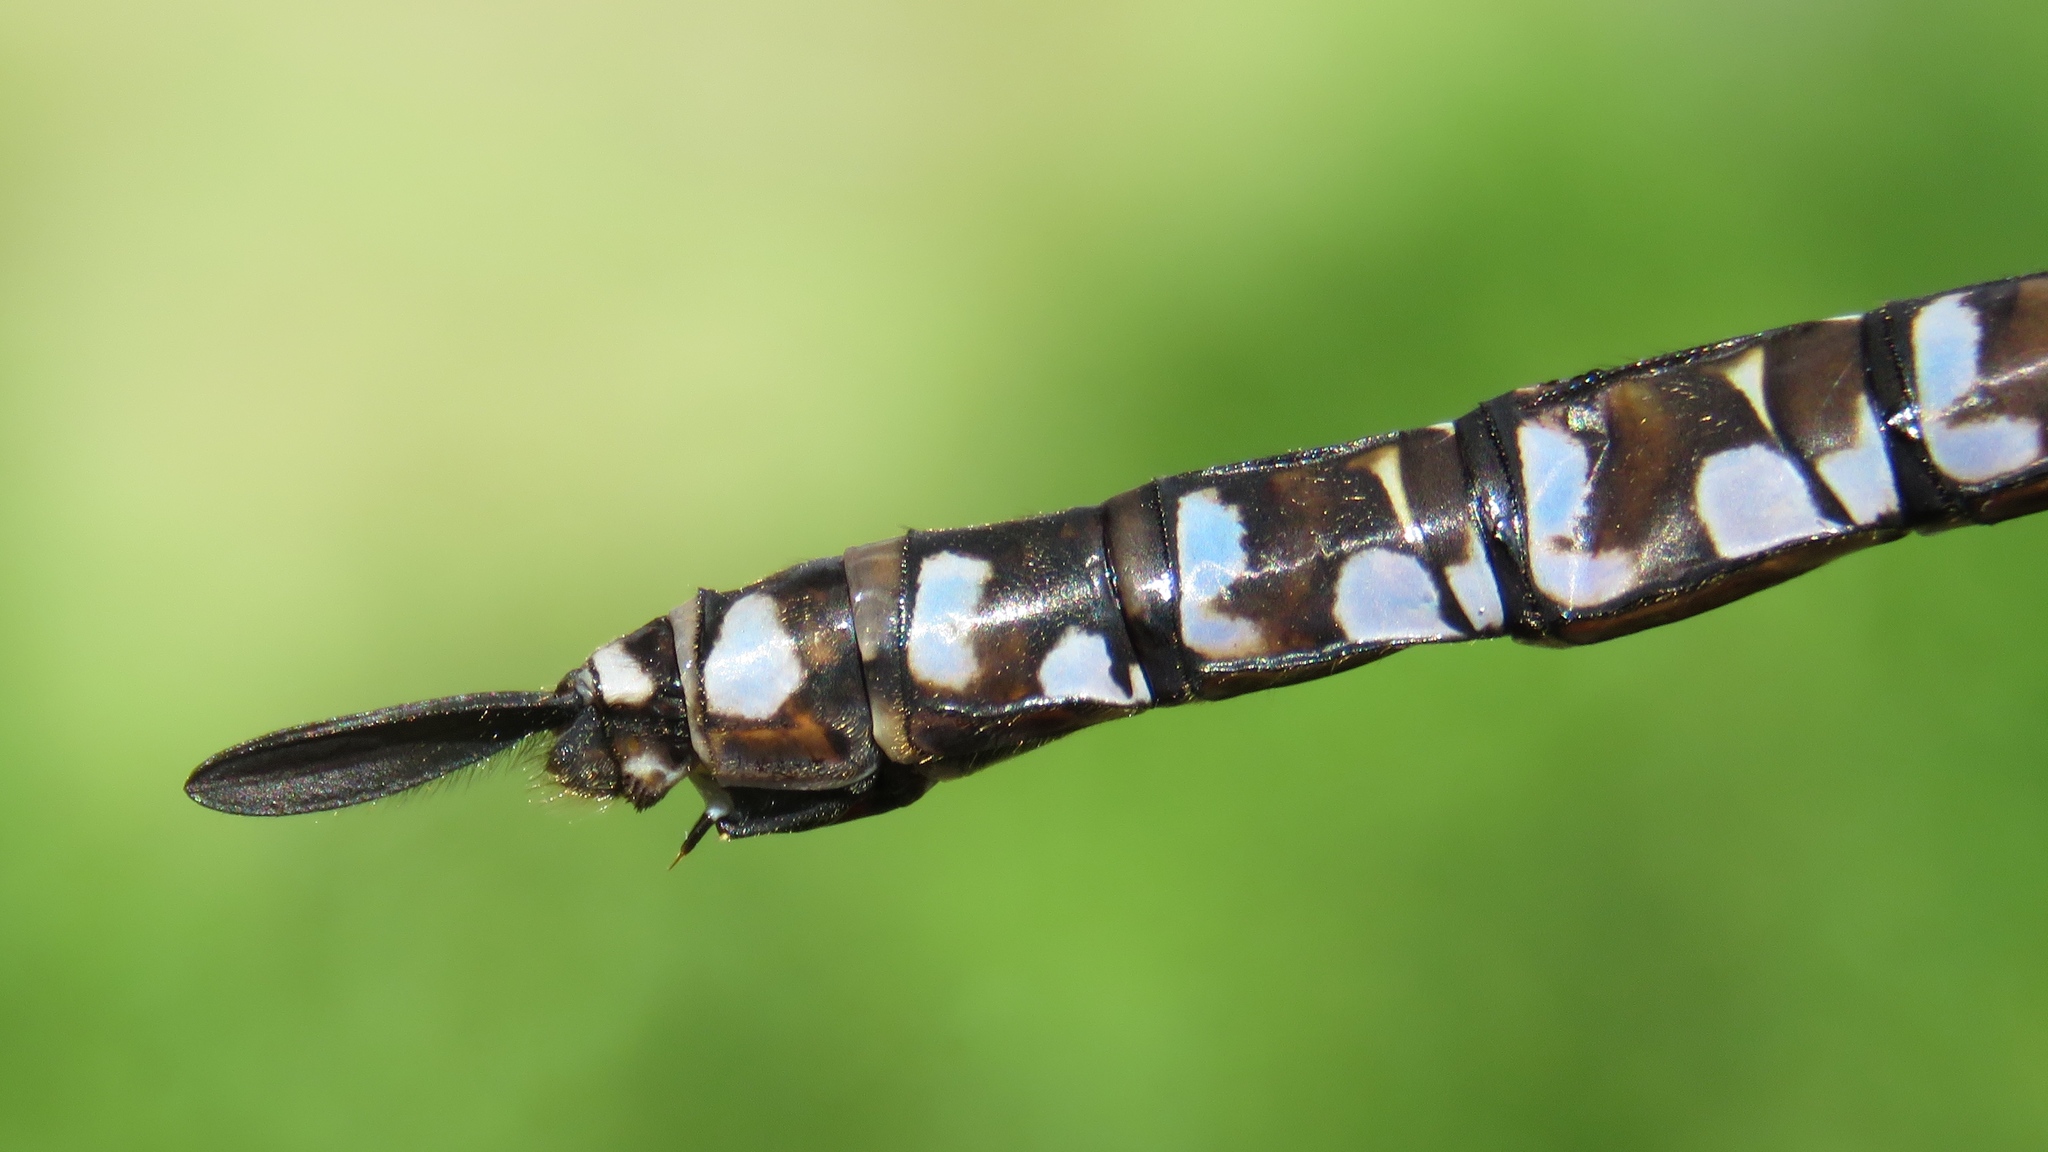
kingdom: Animalia
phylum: Arthropoda
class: Insecta
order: Odonata
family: Aeshnidae
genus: Aeshna
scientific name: Aeshna eremita
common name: Lake darner
